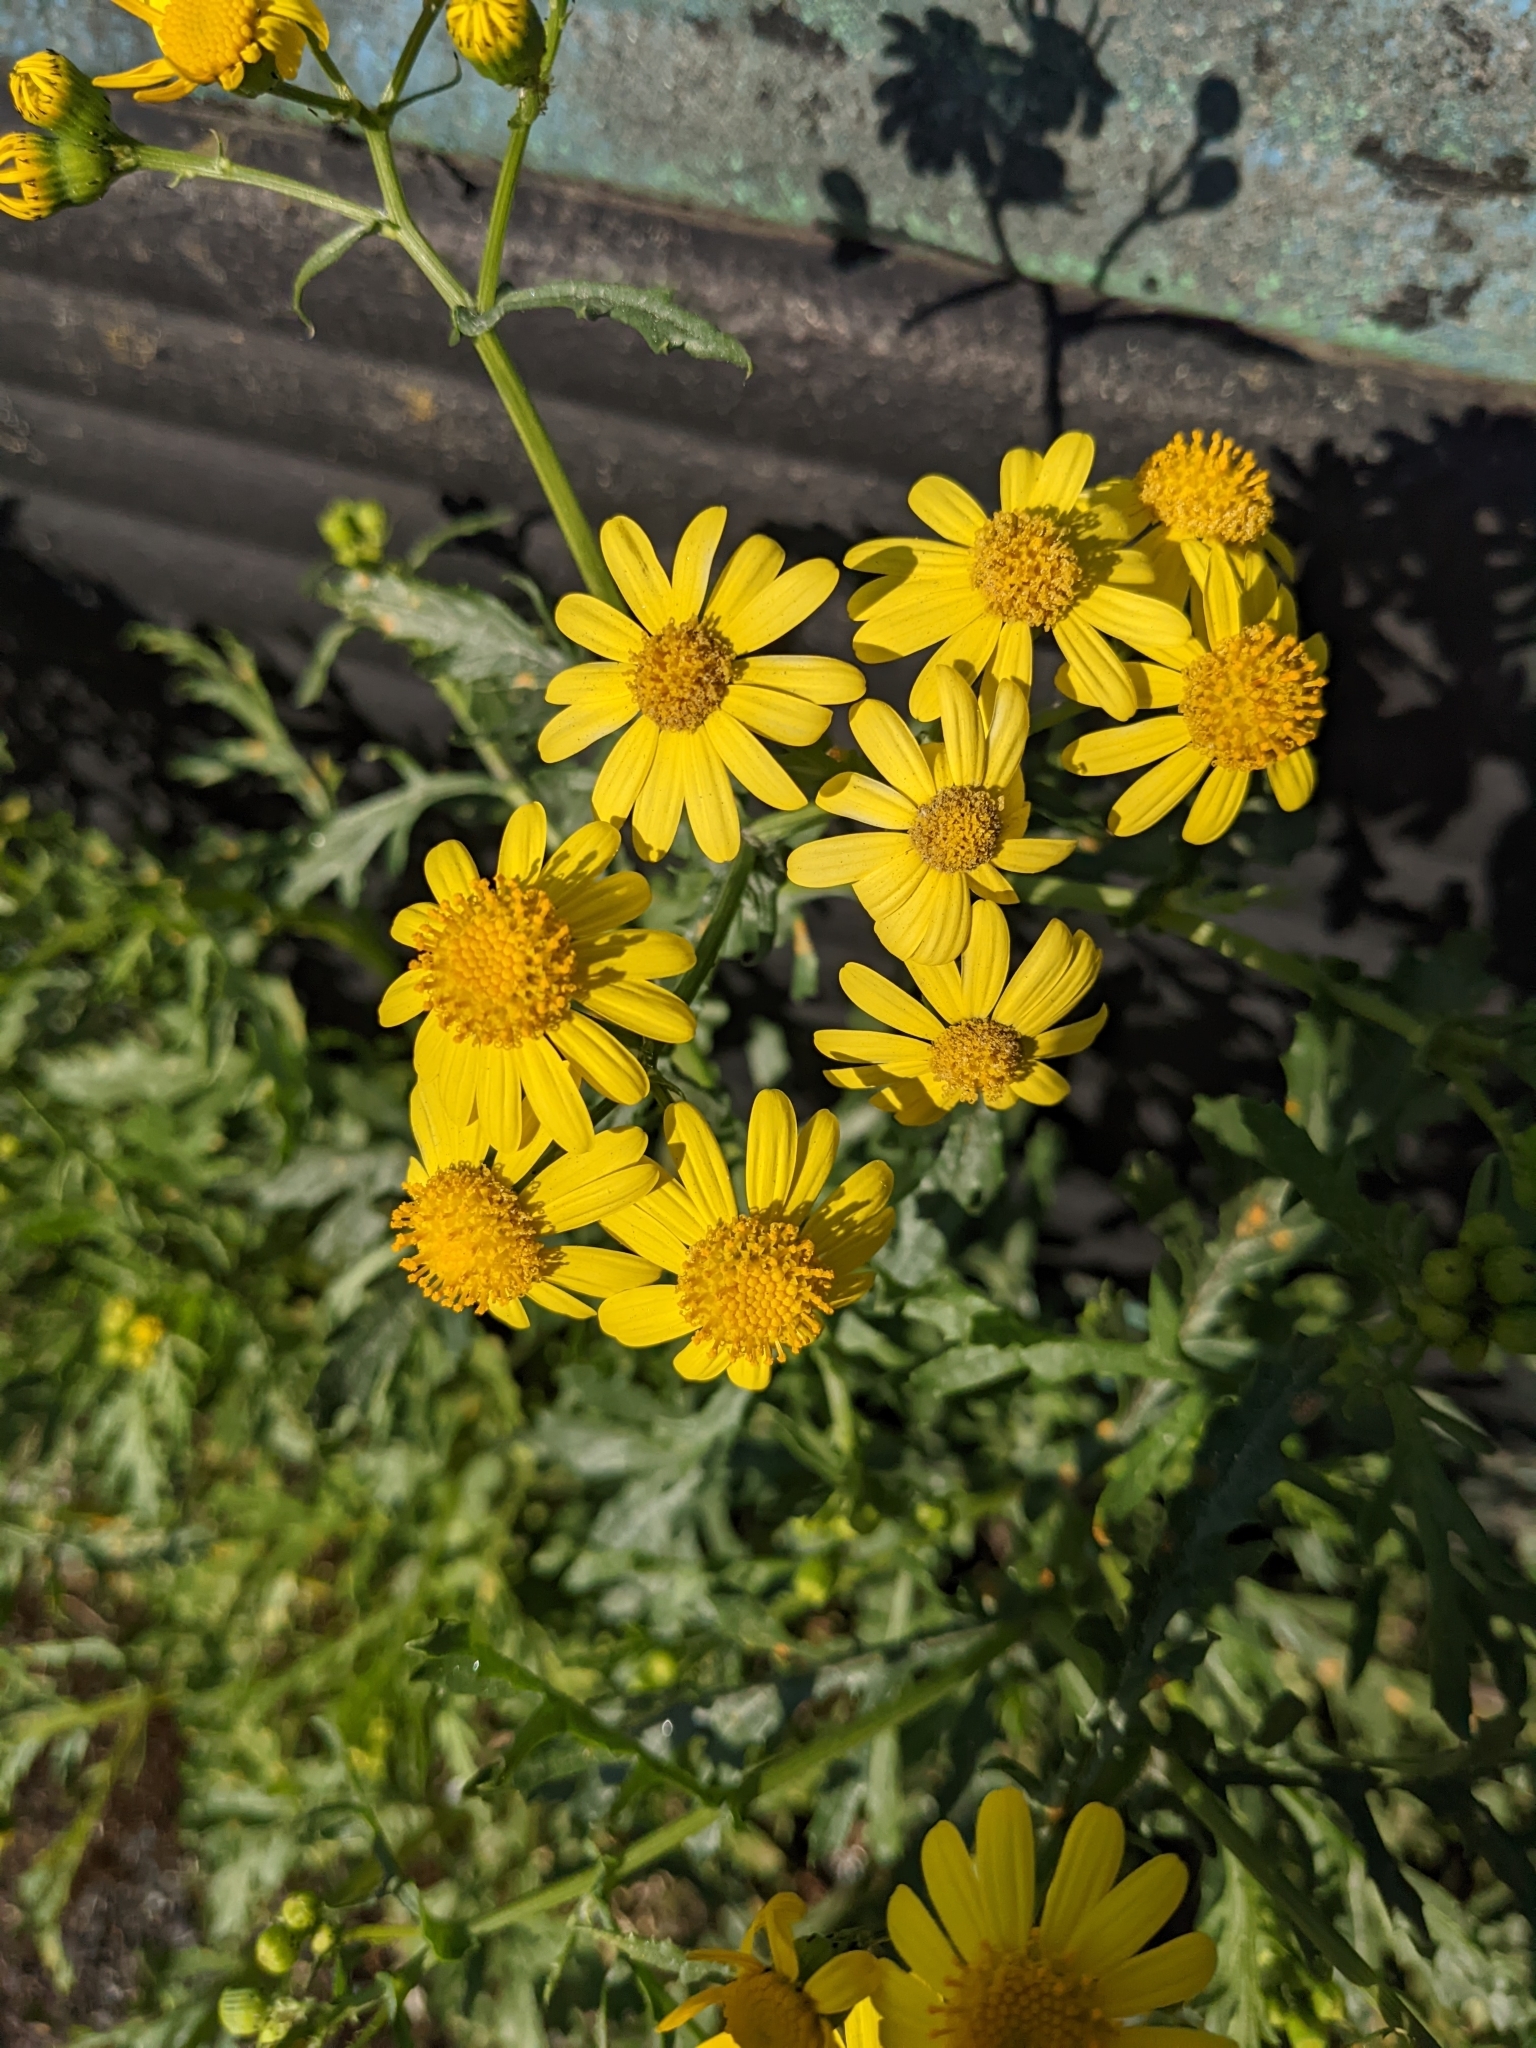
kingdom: Plantae
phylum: Tracheophyta
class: Magnoliopsida
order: Asterales
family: Asteraceae
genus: Senecio
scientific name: Senecio squalidus
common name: Oxford ragwort
